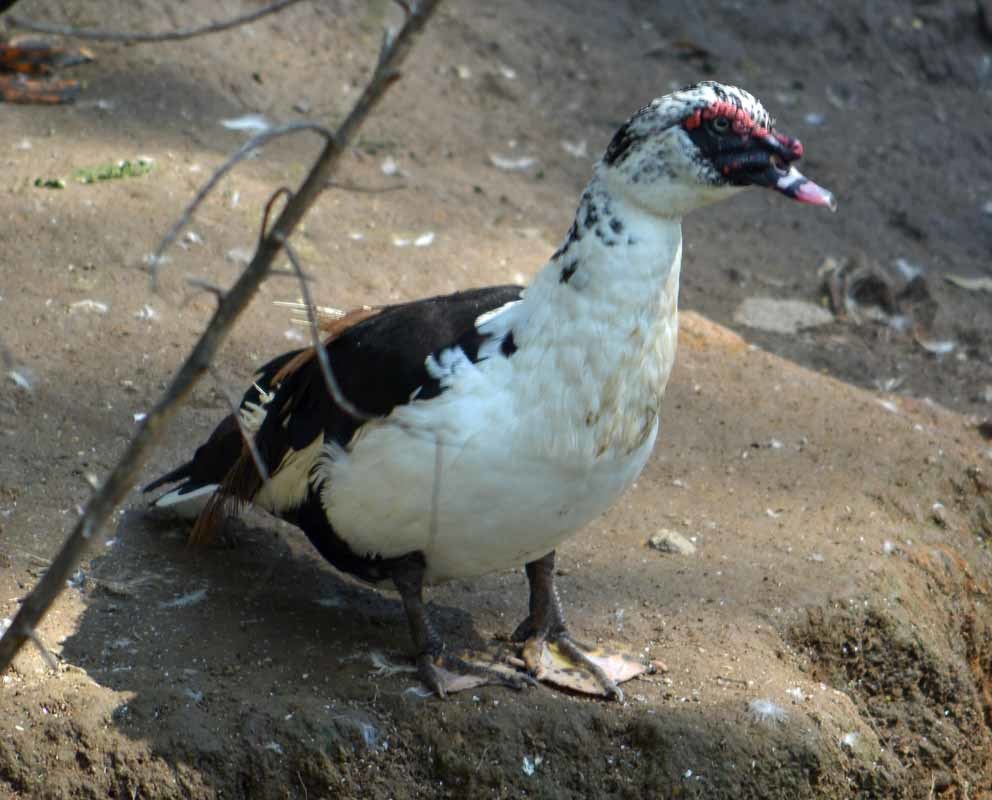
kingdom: Animalia
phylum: Chordata
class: Aves
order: Anseriformes
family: Anatidae
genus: Cairina
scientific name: Cairina moschata
